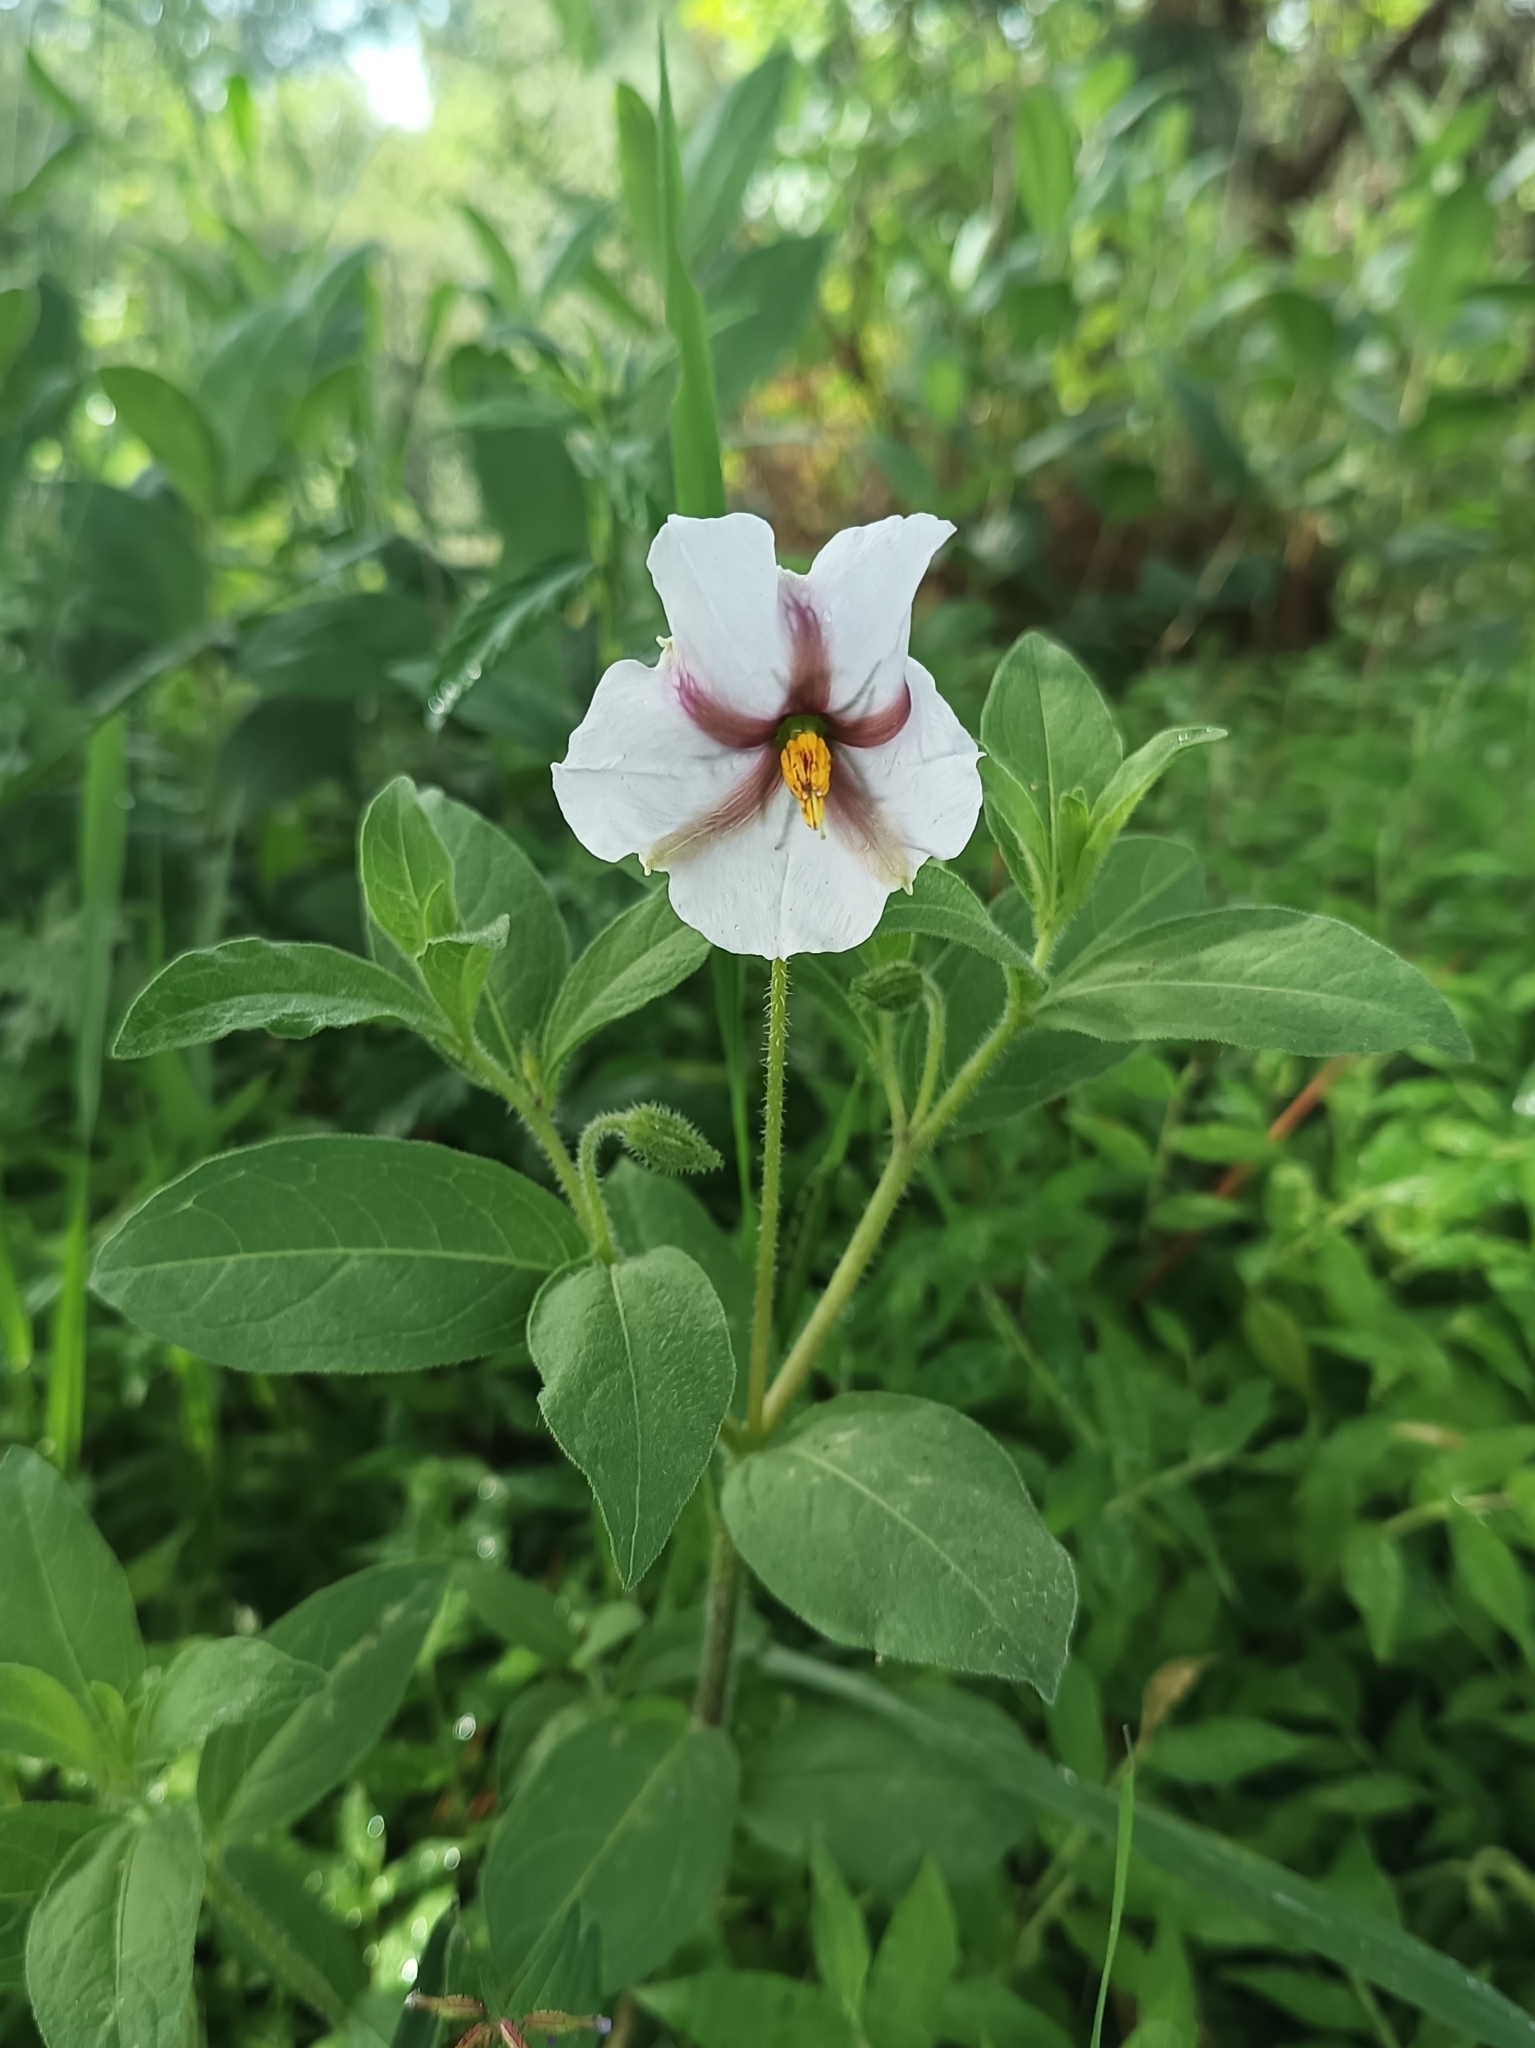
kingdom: Plantae
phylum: Tracheophyta
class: Magnoliopsida
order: Solanales
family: Solanaceae
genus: Lycianthes
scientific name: Lycianthes moziniana
